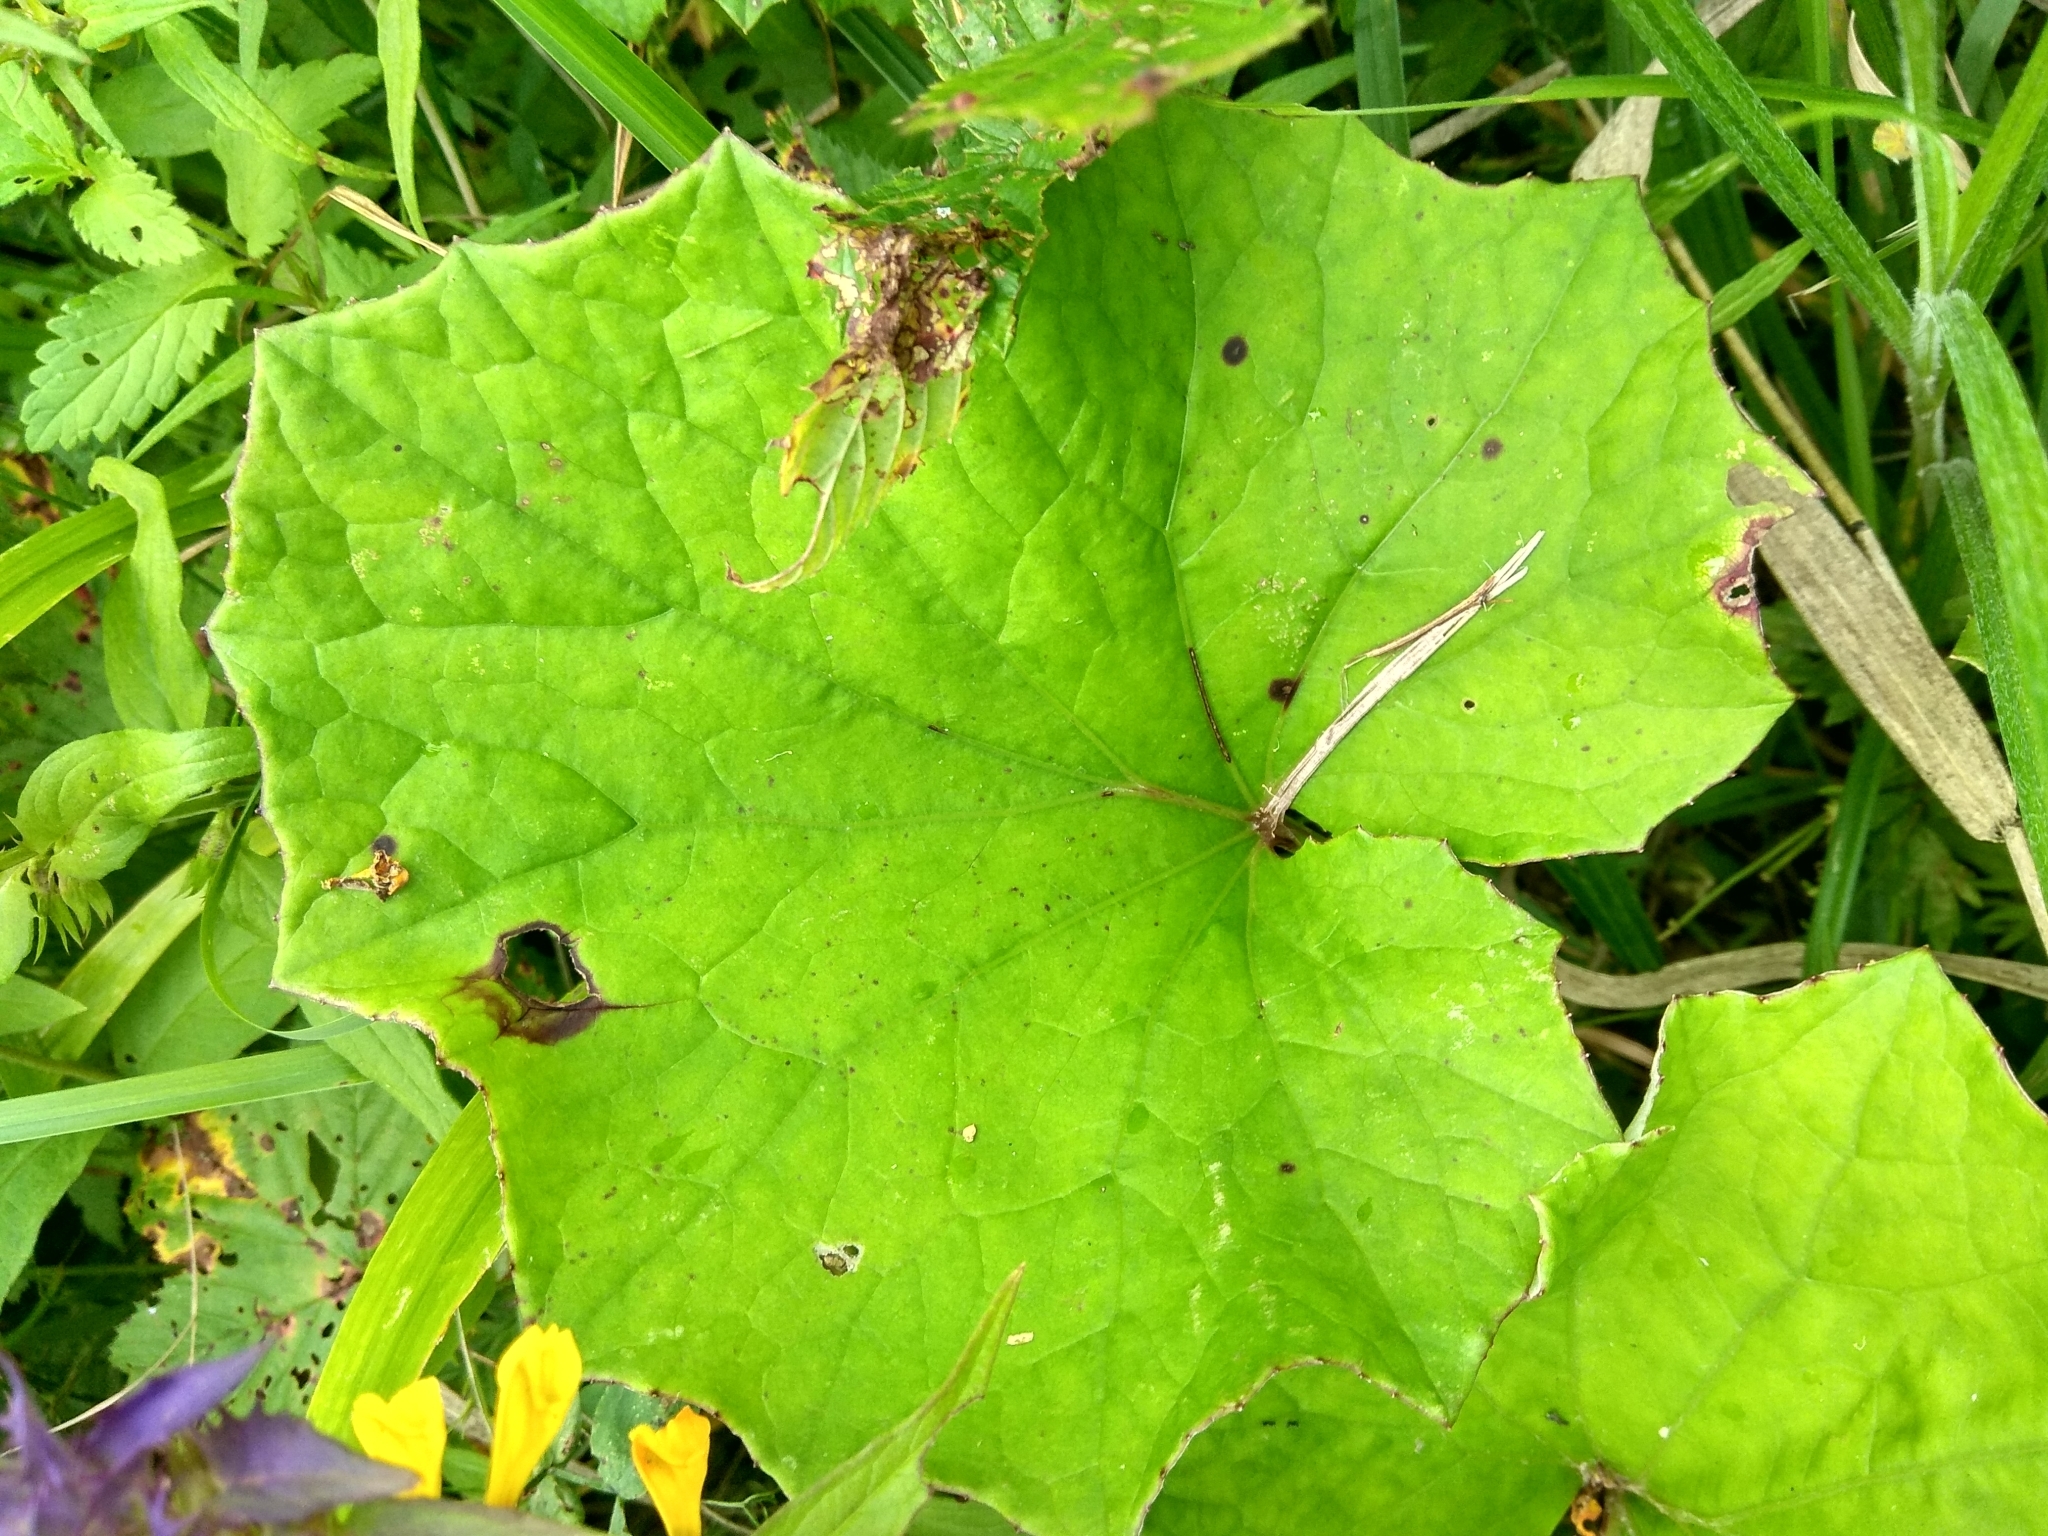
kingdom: Plantae
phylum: Tracheophyta
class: Magnoliopsida
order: Asterales
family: Asteraceae
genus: Tussilago
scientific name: Tussilago farfara
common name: Coltsfoot
